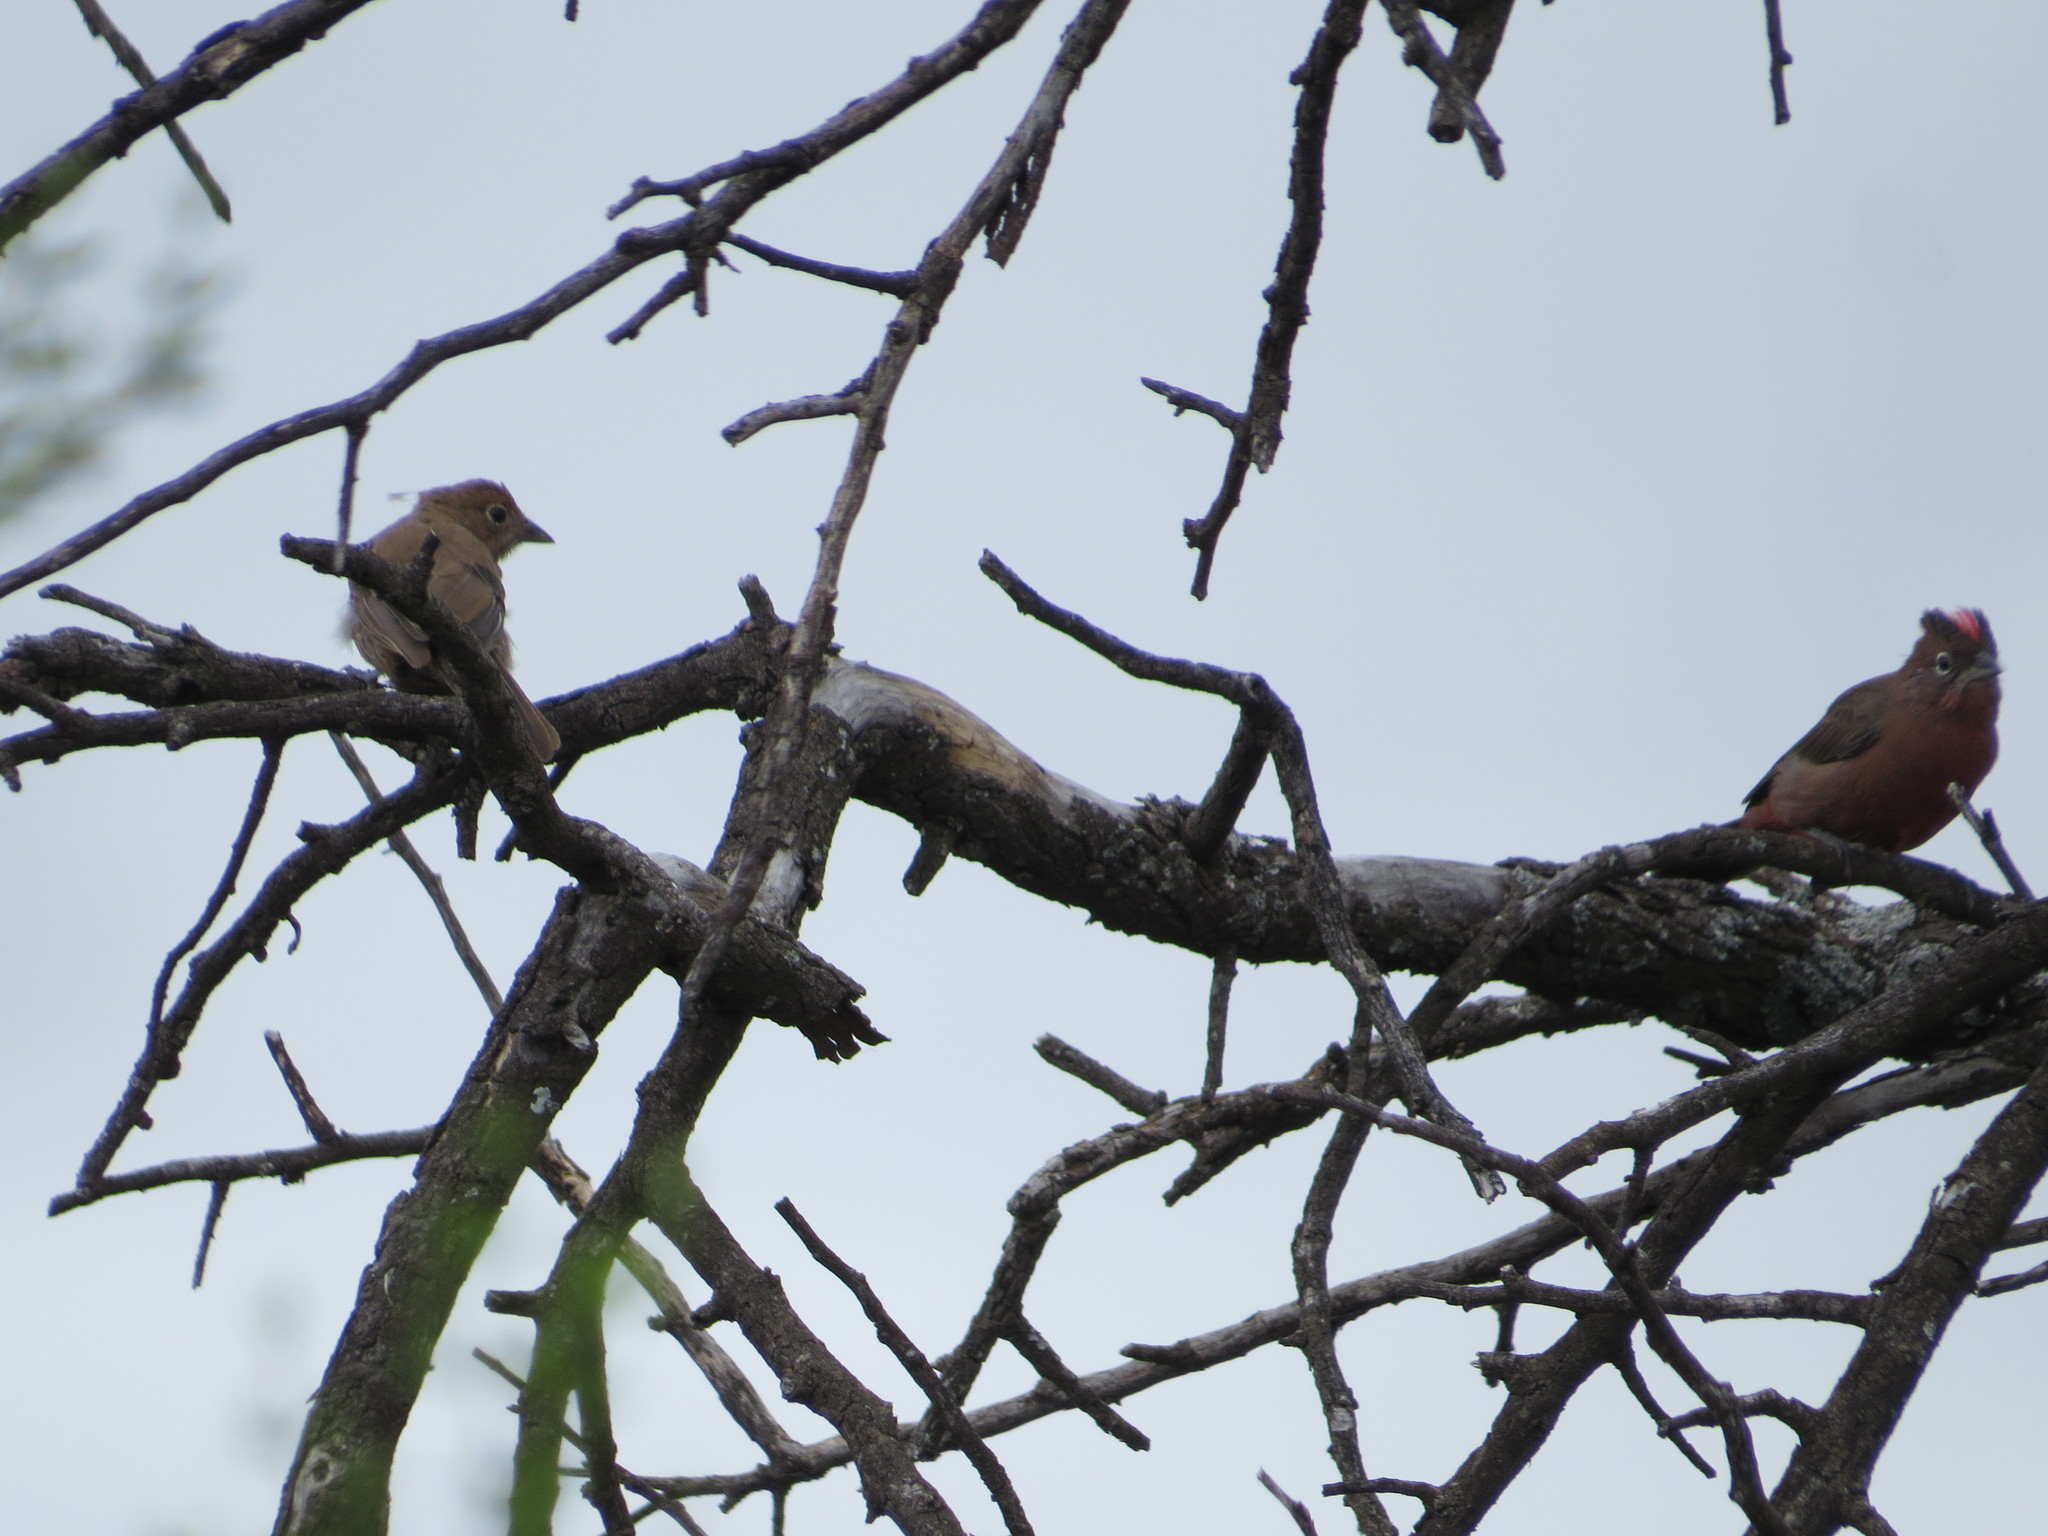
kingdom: Animalia
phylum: Chordata
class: Aves
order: Passeriformes
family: Thraupidae
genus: Coryphospingus
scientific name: Coryphospingus cucullatus
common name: Red pileated finch
